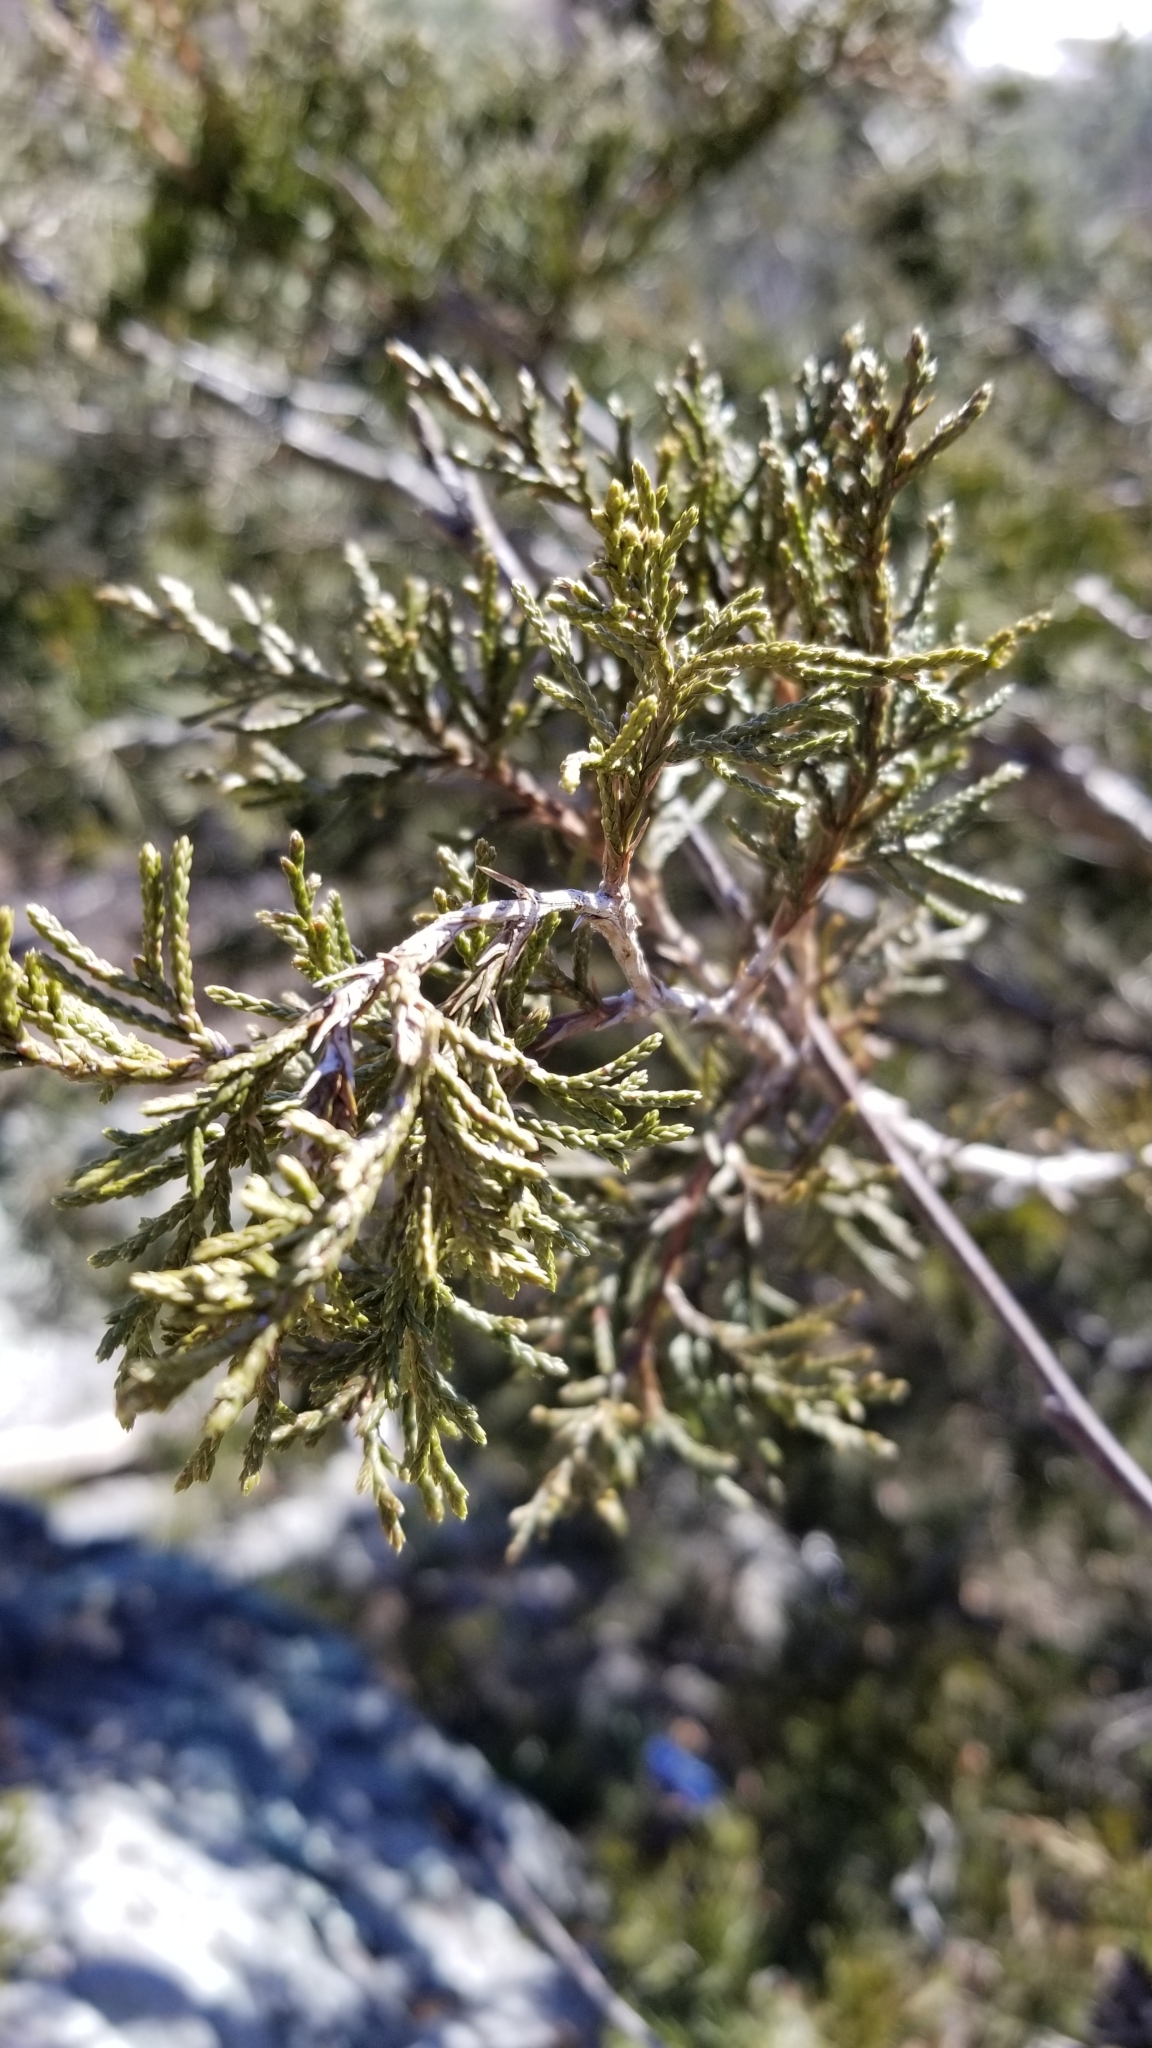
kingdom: Plantae
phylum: Tracheophyta
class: Pinopsida
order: Pinales
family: Cupressaceae
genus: Juniperus
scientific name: Juniperus virginiana
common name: Red juniper
